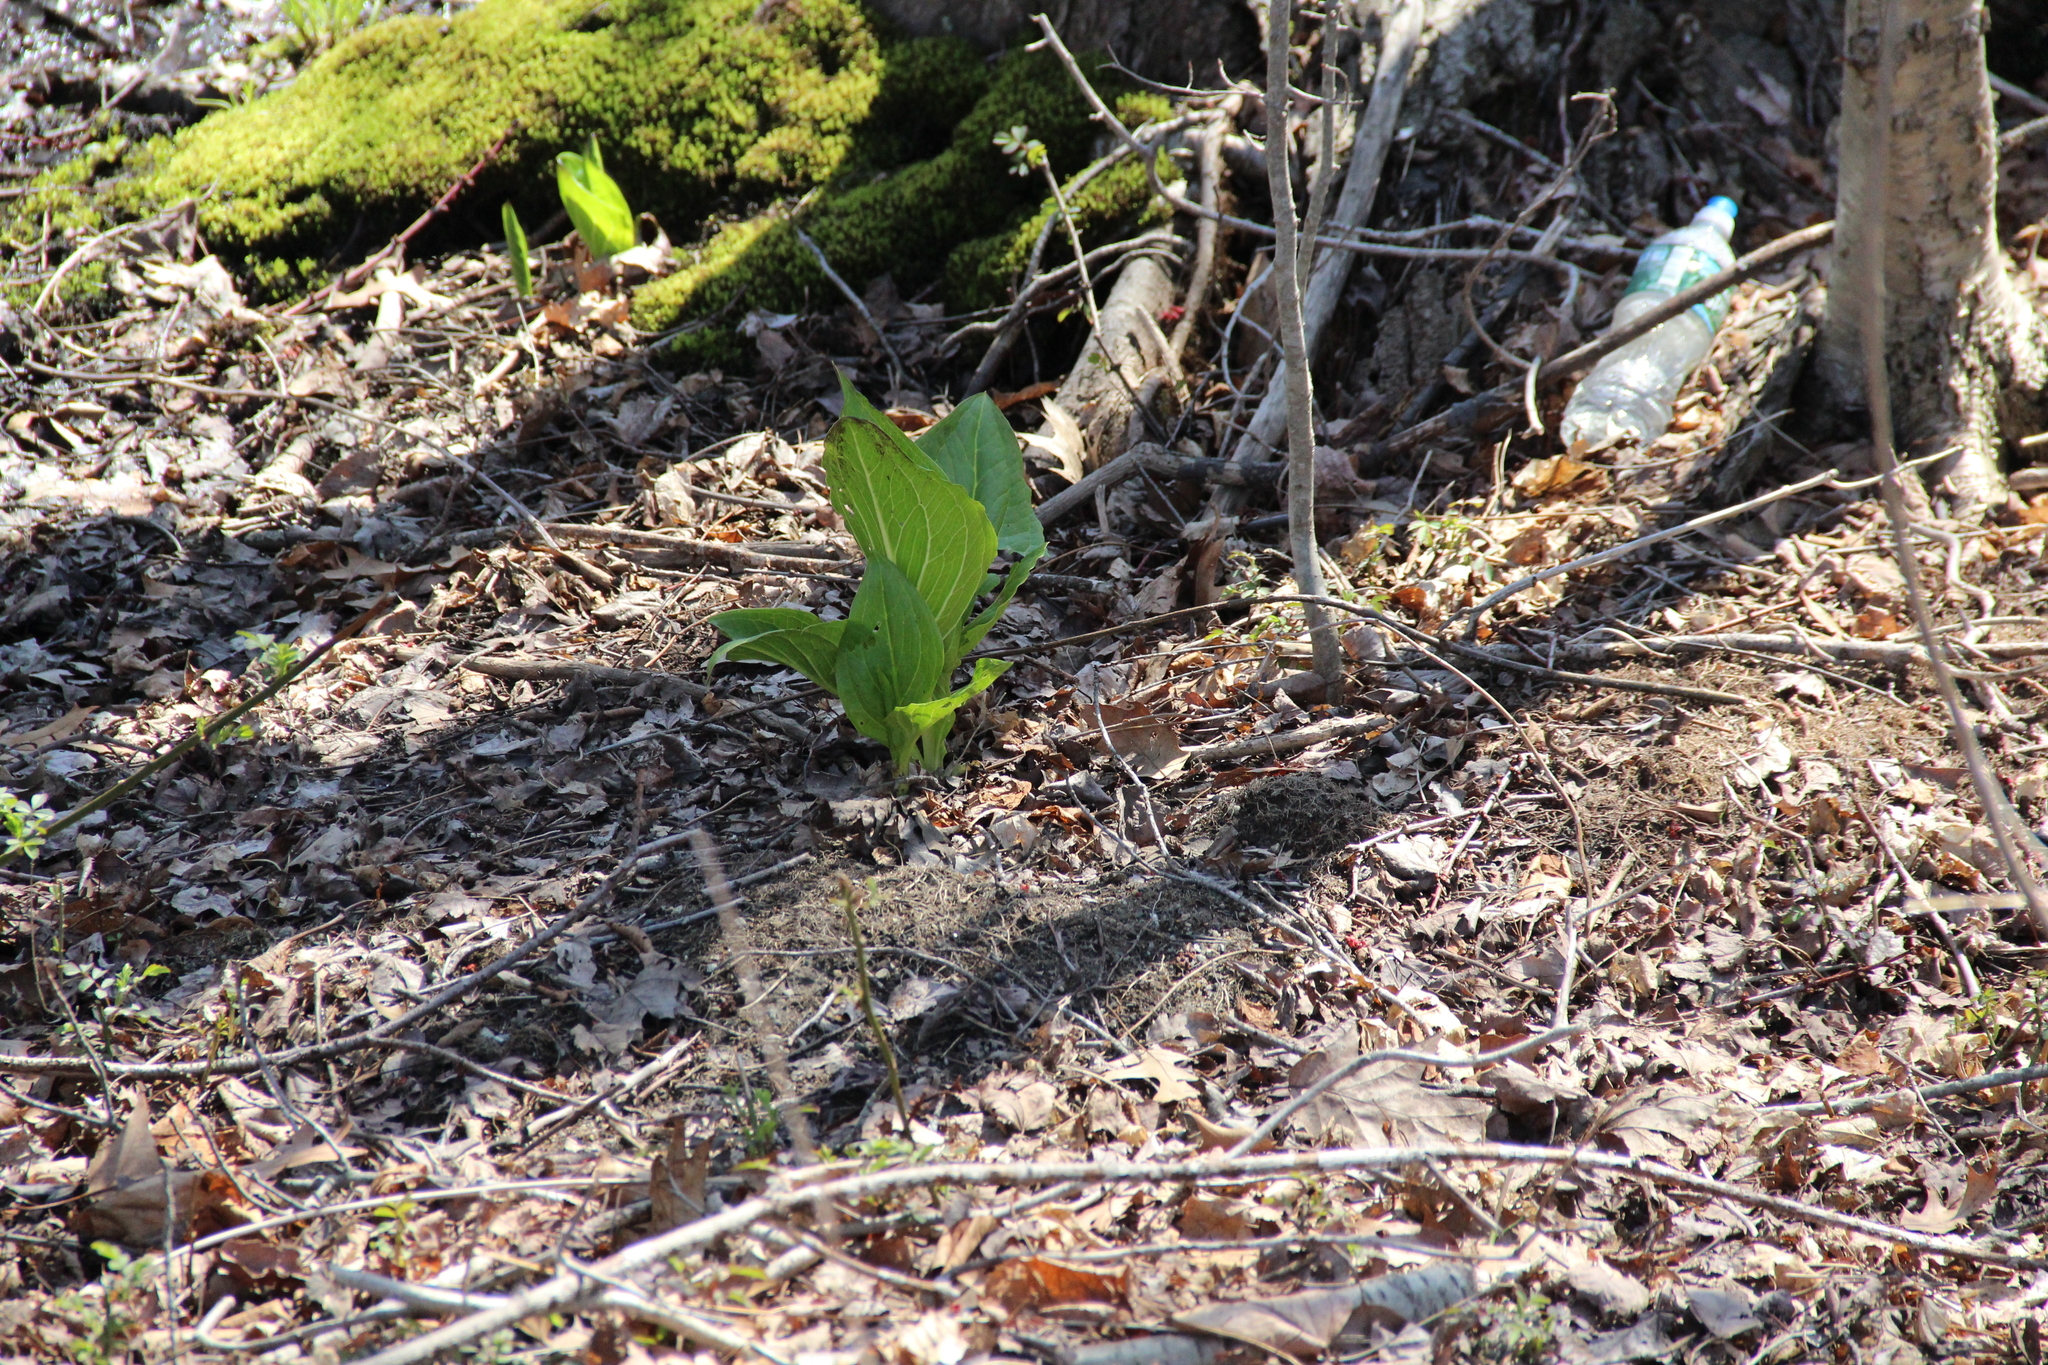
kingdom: Plantae
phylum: Tracheophyta
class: Liliopsida
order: Alismatales
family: Araceae
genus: Symplocarpus
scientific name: Symplocarpus foetidus
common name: Eastern skunk cabbage
